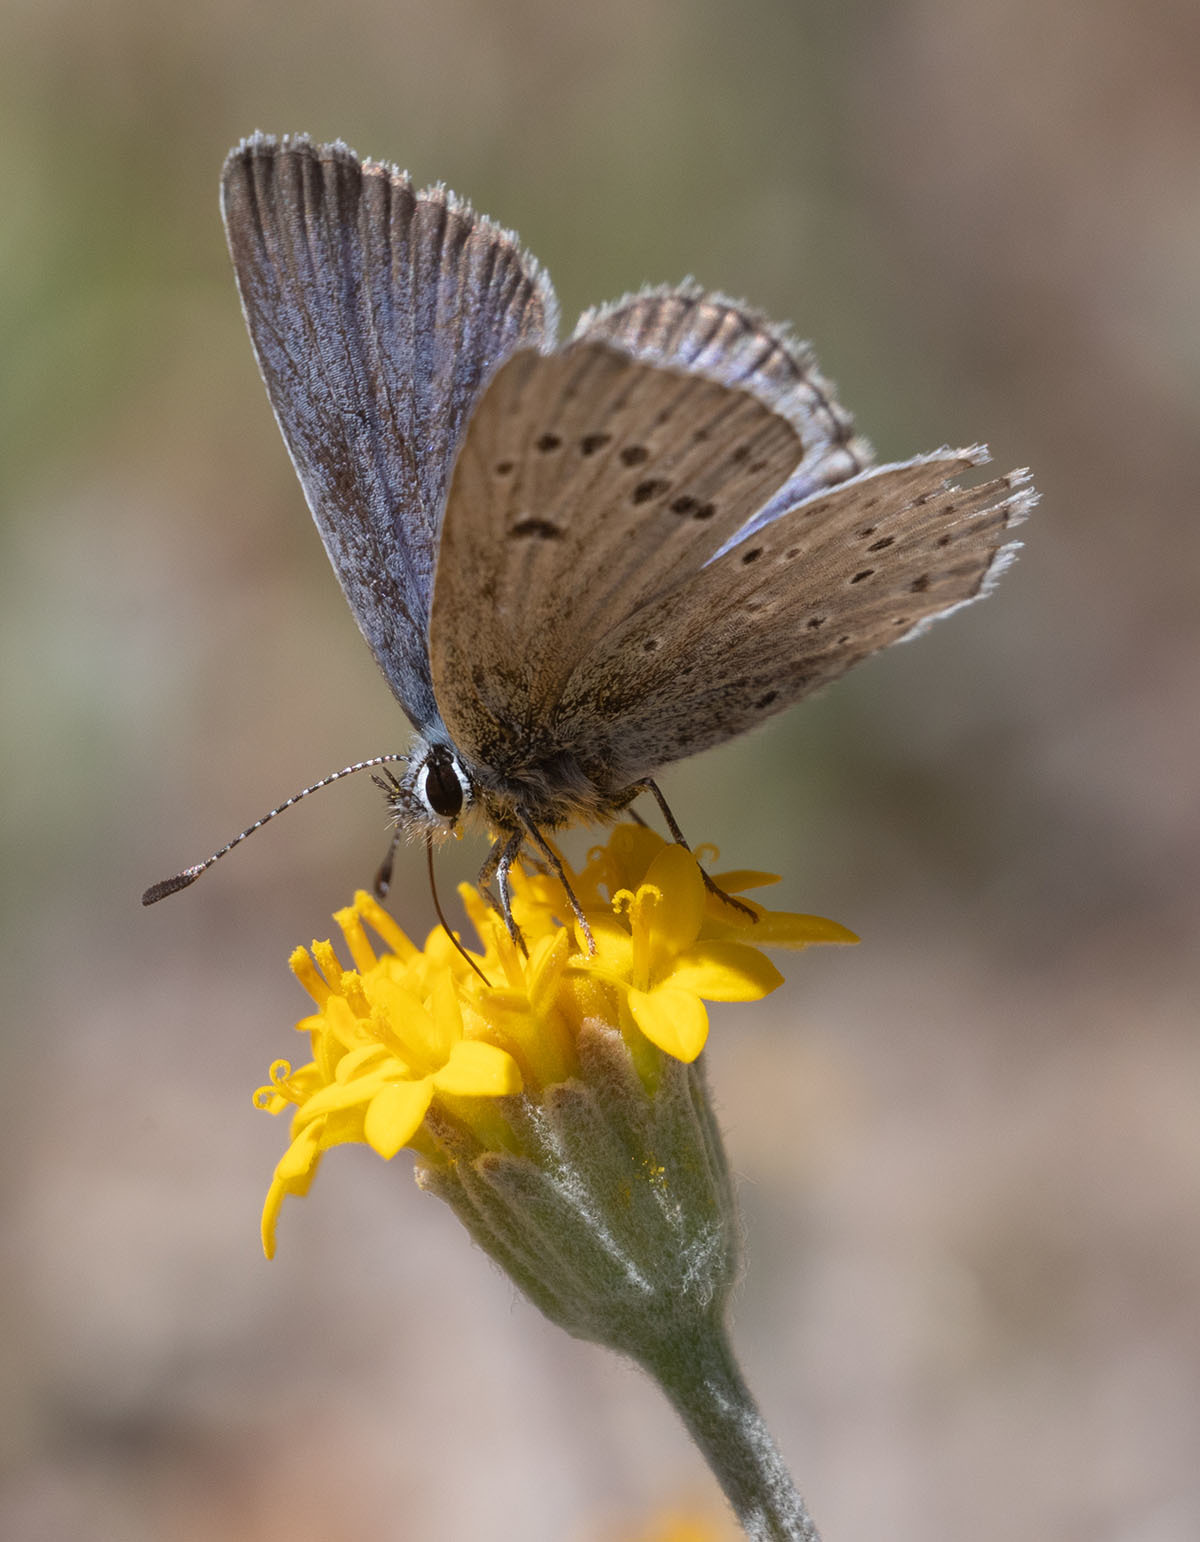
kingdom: Animalia
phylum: Arthropoda
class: Insecta
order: Lepidoptera
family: Lycaenidae
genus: Icaricia
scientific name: Icaricia icarioides
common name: Boisduval's blue
